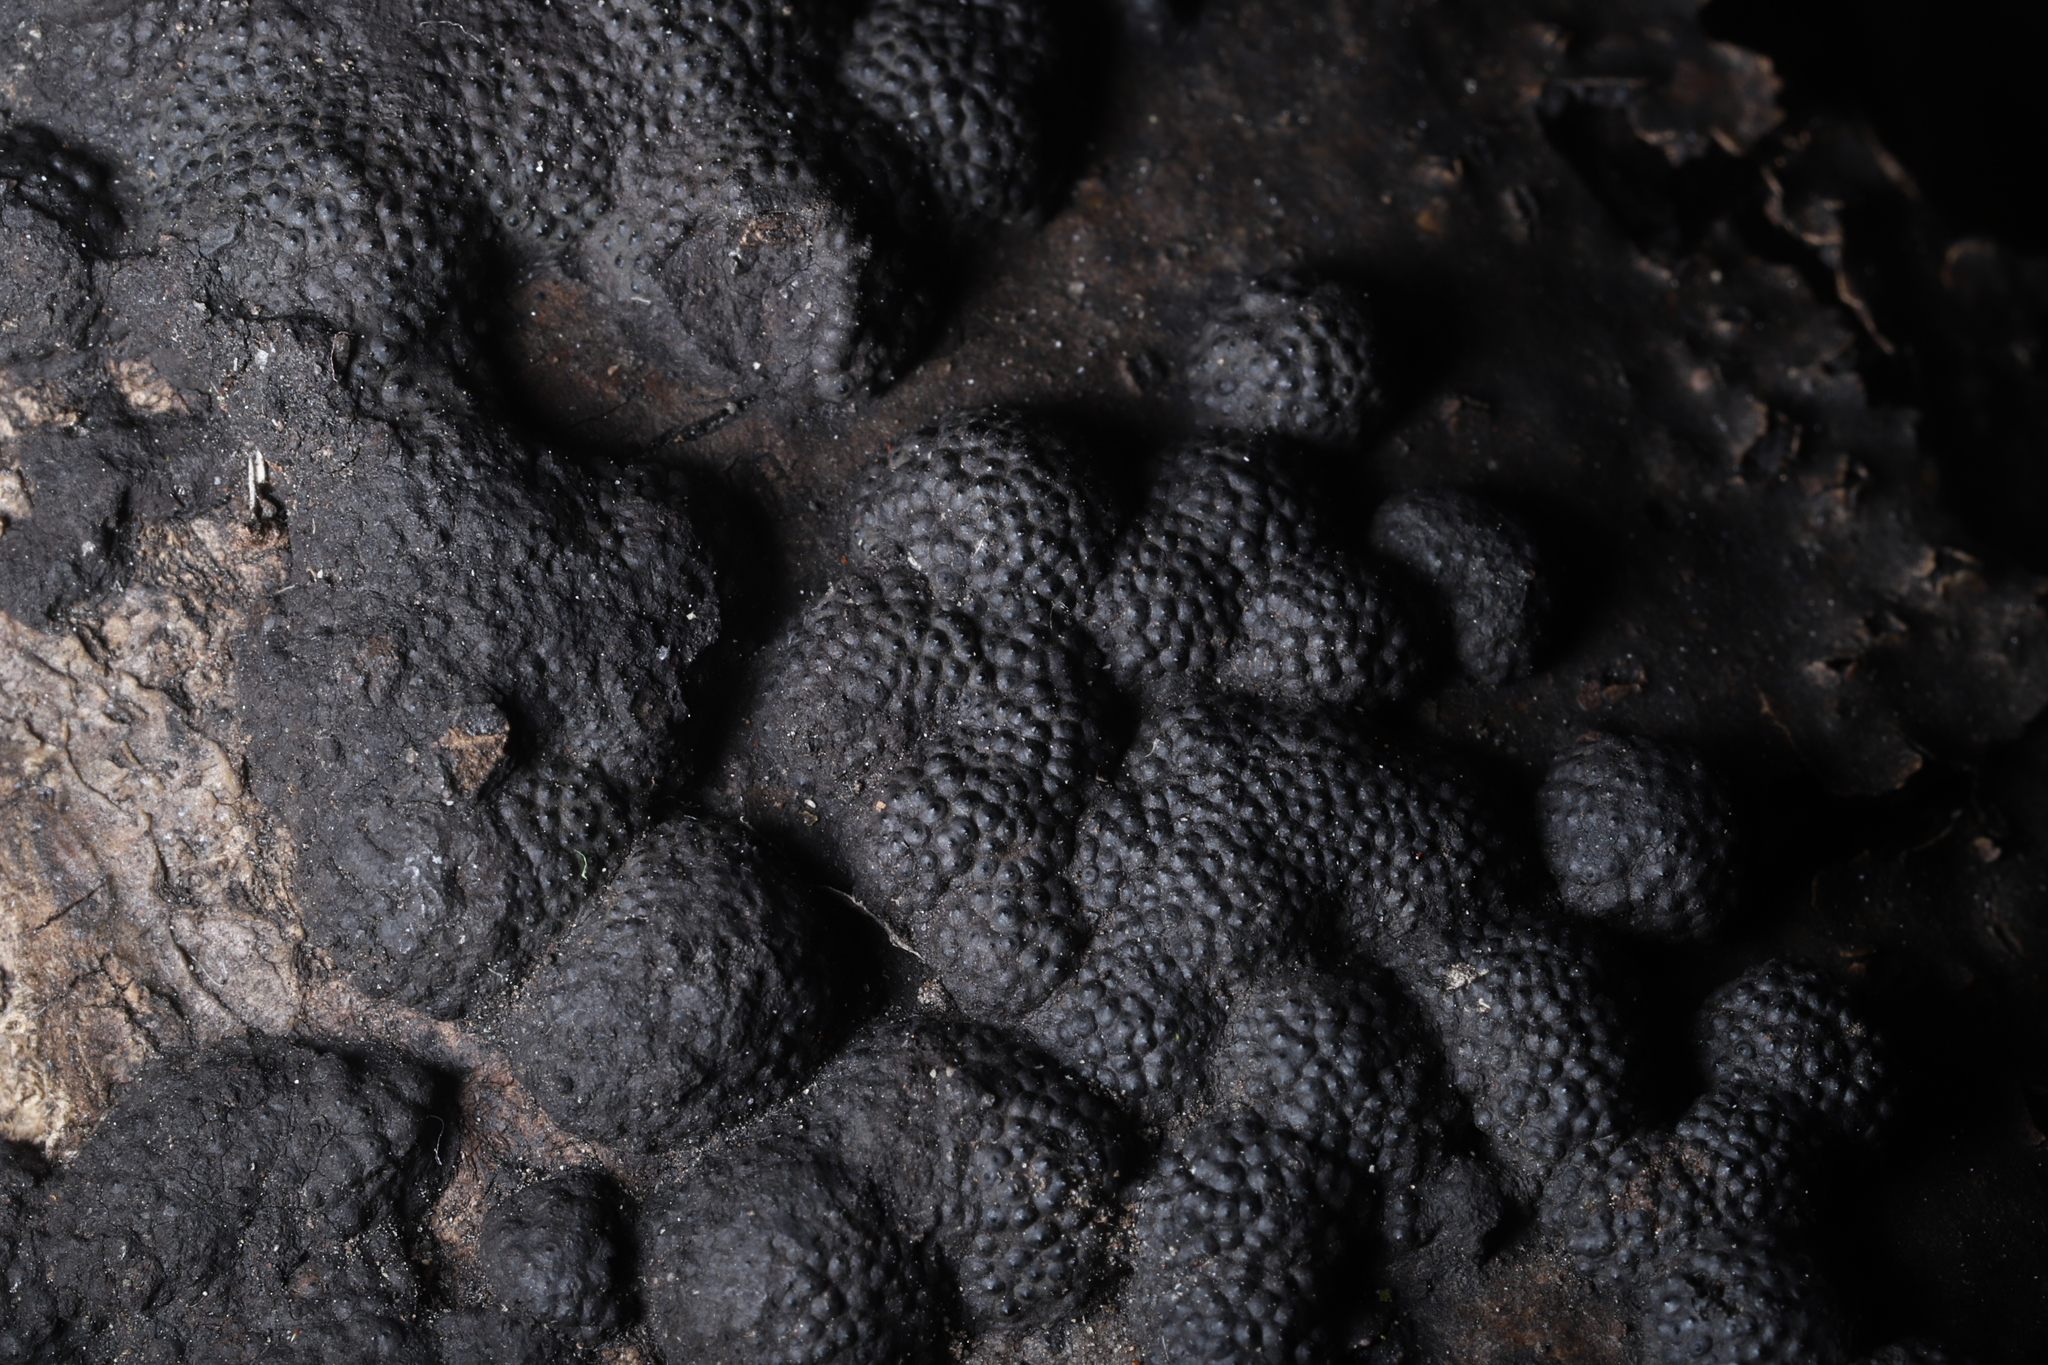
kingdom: Fungi
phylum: Ascomycota
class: Sordariomycetes
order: Xylariales
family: Hypoxylaceae
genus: Annulohypoxylon
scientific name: Annulohypoxylon annulatum
